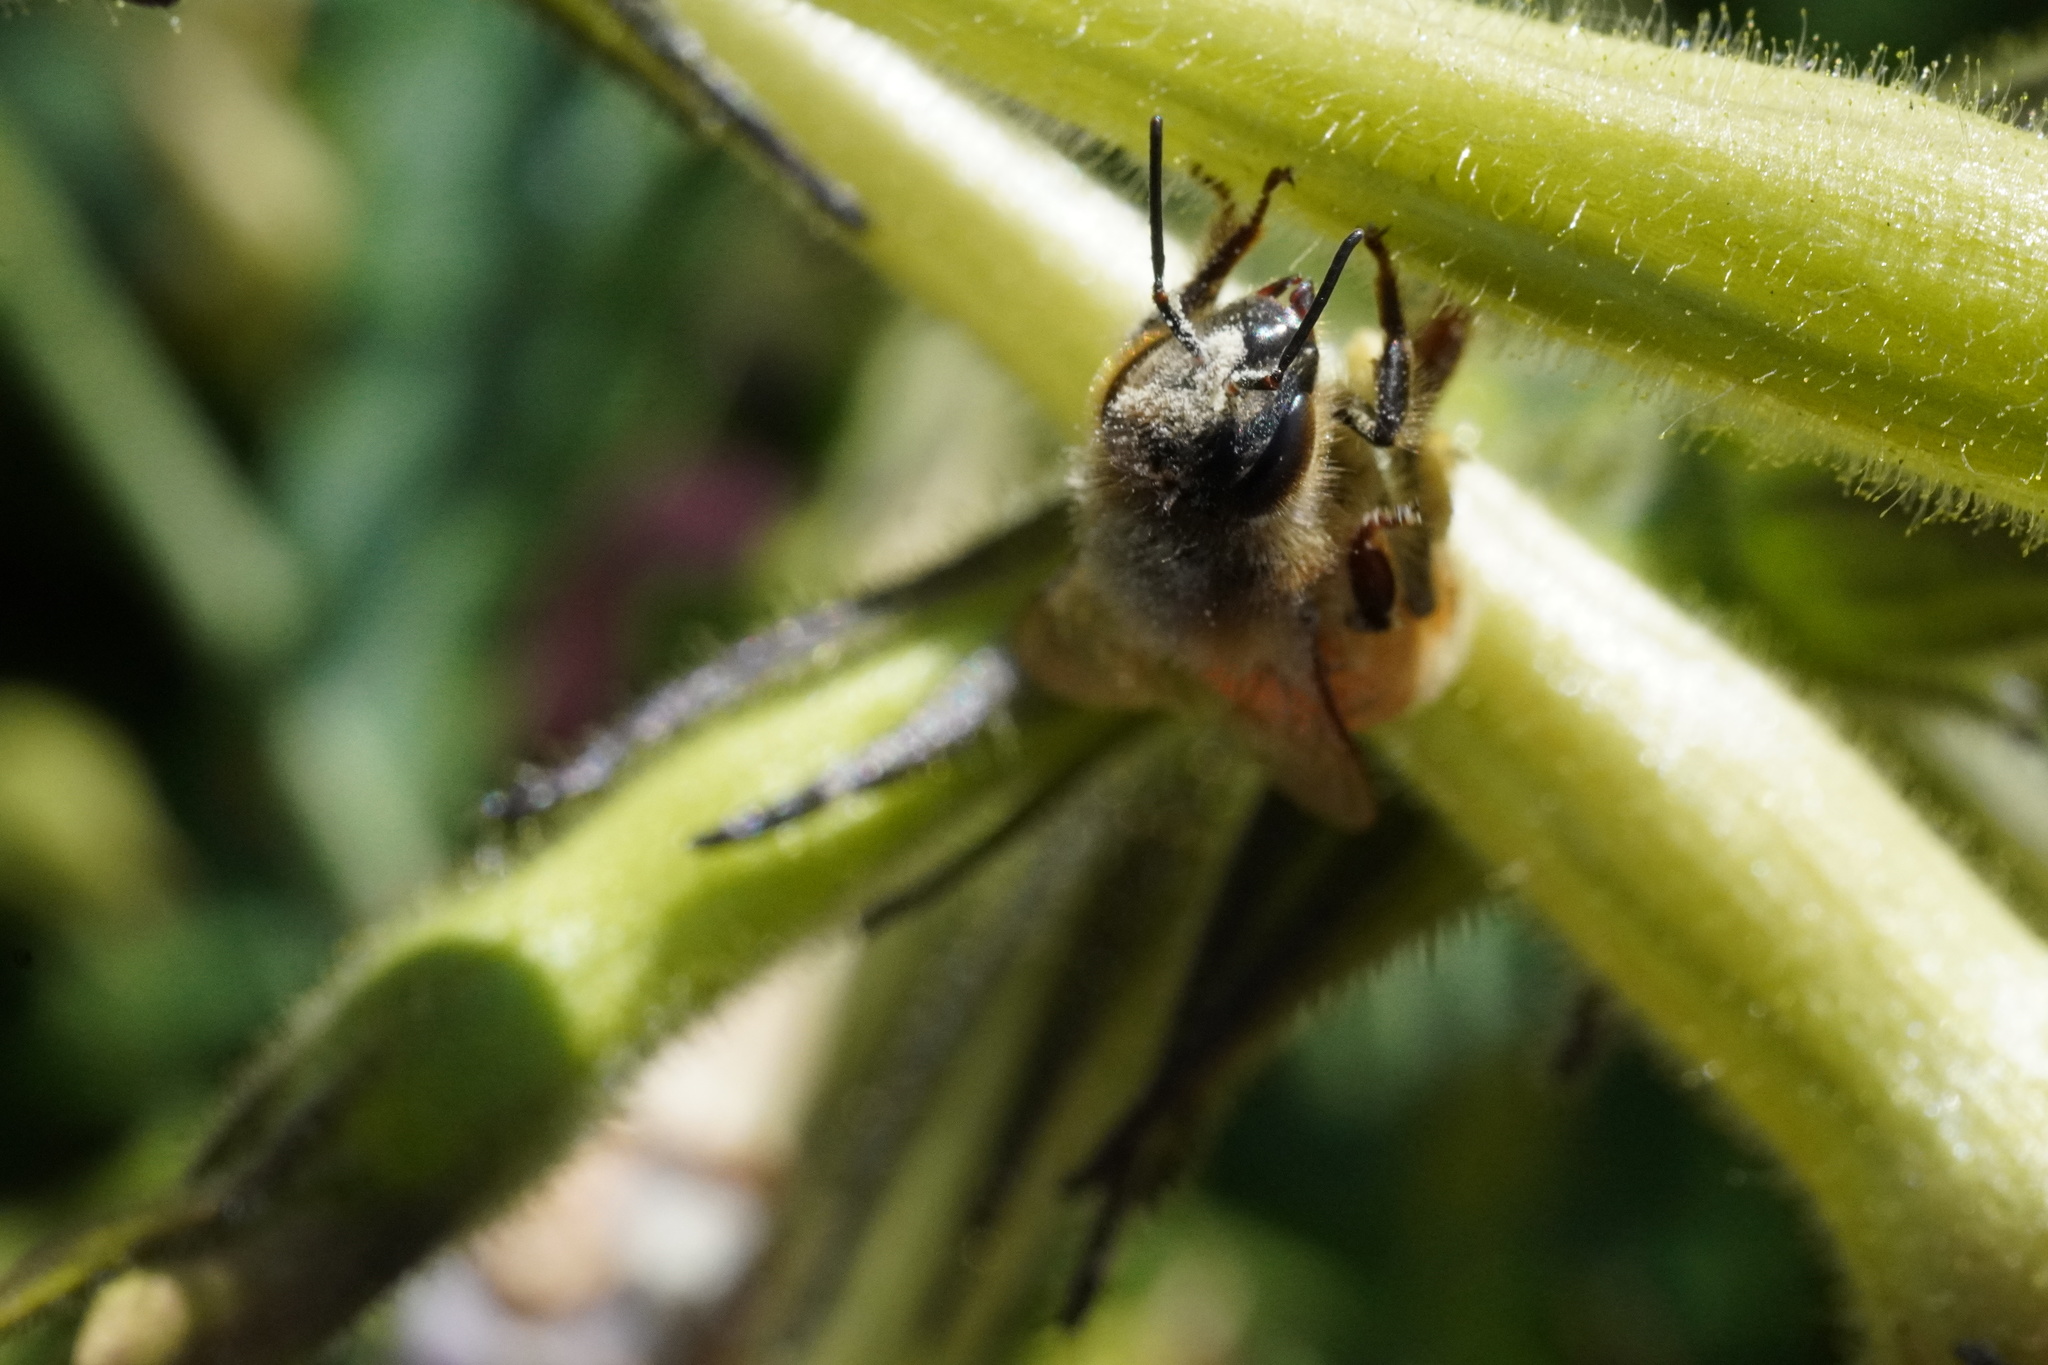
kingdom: Animalia
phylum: Arthropoda
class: Insecta
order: Hymenoptera
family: Apidae
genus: Apis
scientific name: Apis mellifera
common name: Honey bee
